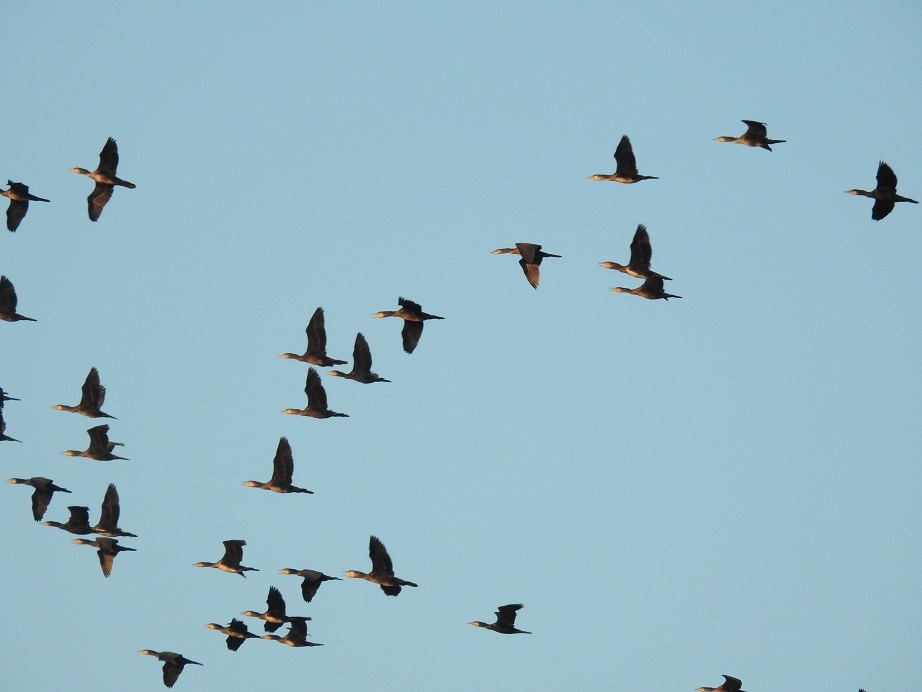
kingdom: Animalia
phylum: Chordata
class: Aves
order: Suliformes
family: Phalacrocoracidae
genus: Phalacrocorax
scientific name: Phalacrocorax carbo
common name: Great cormorant
